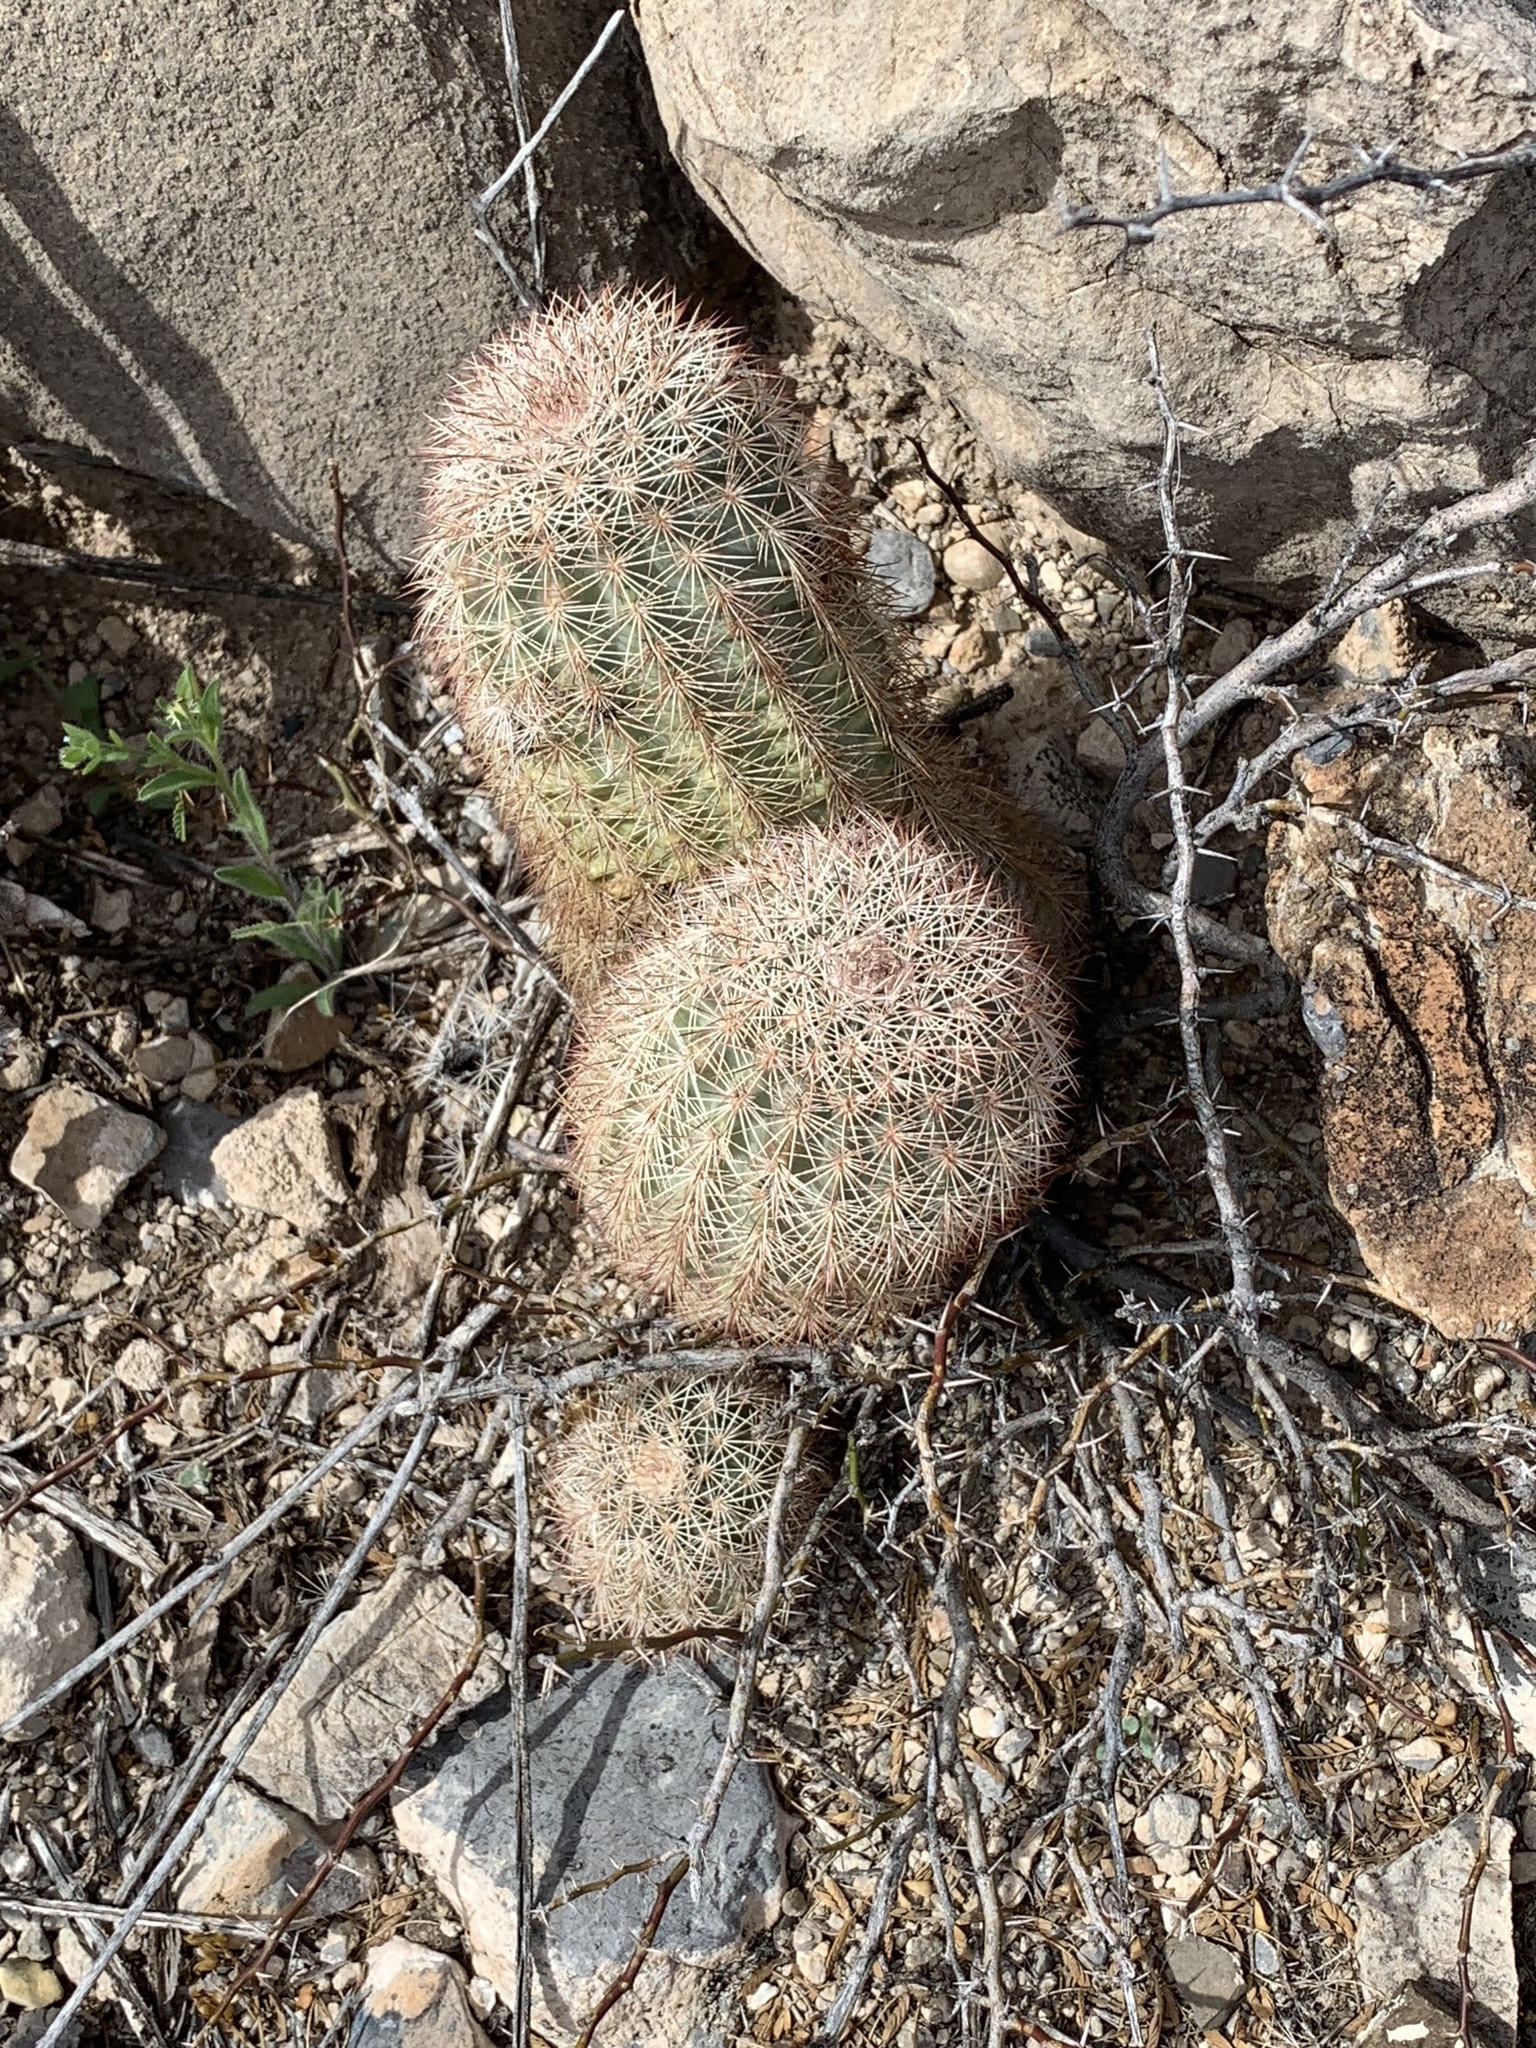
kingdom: Plantae
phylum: Tracheophyta
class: Magnoliopsida
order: Caryophyllales
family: Cactaceae
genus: Echinocereus
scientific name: Echinocereus dasyacanthus
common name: Spiny hedgehog cactus
